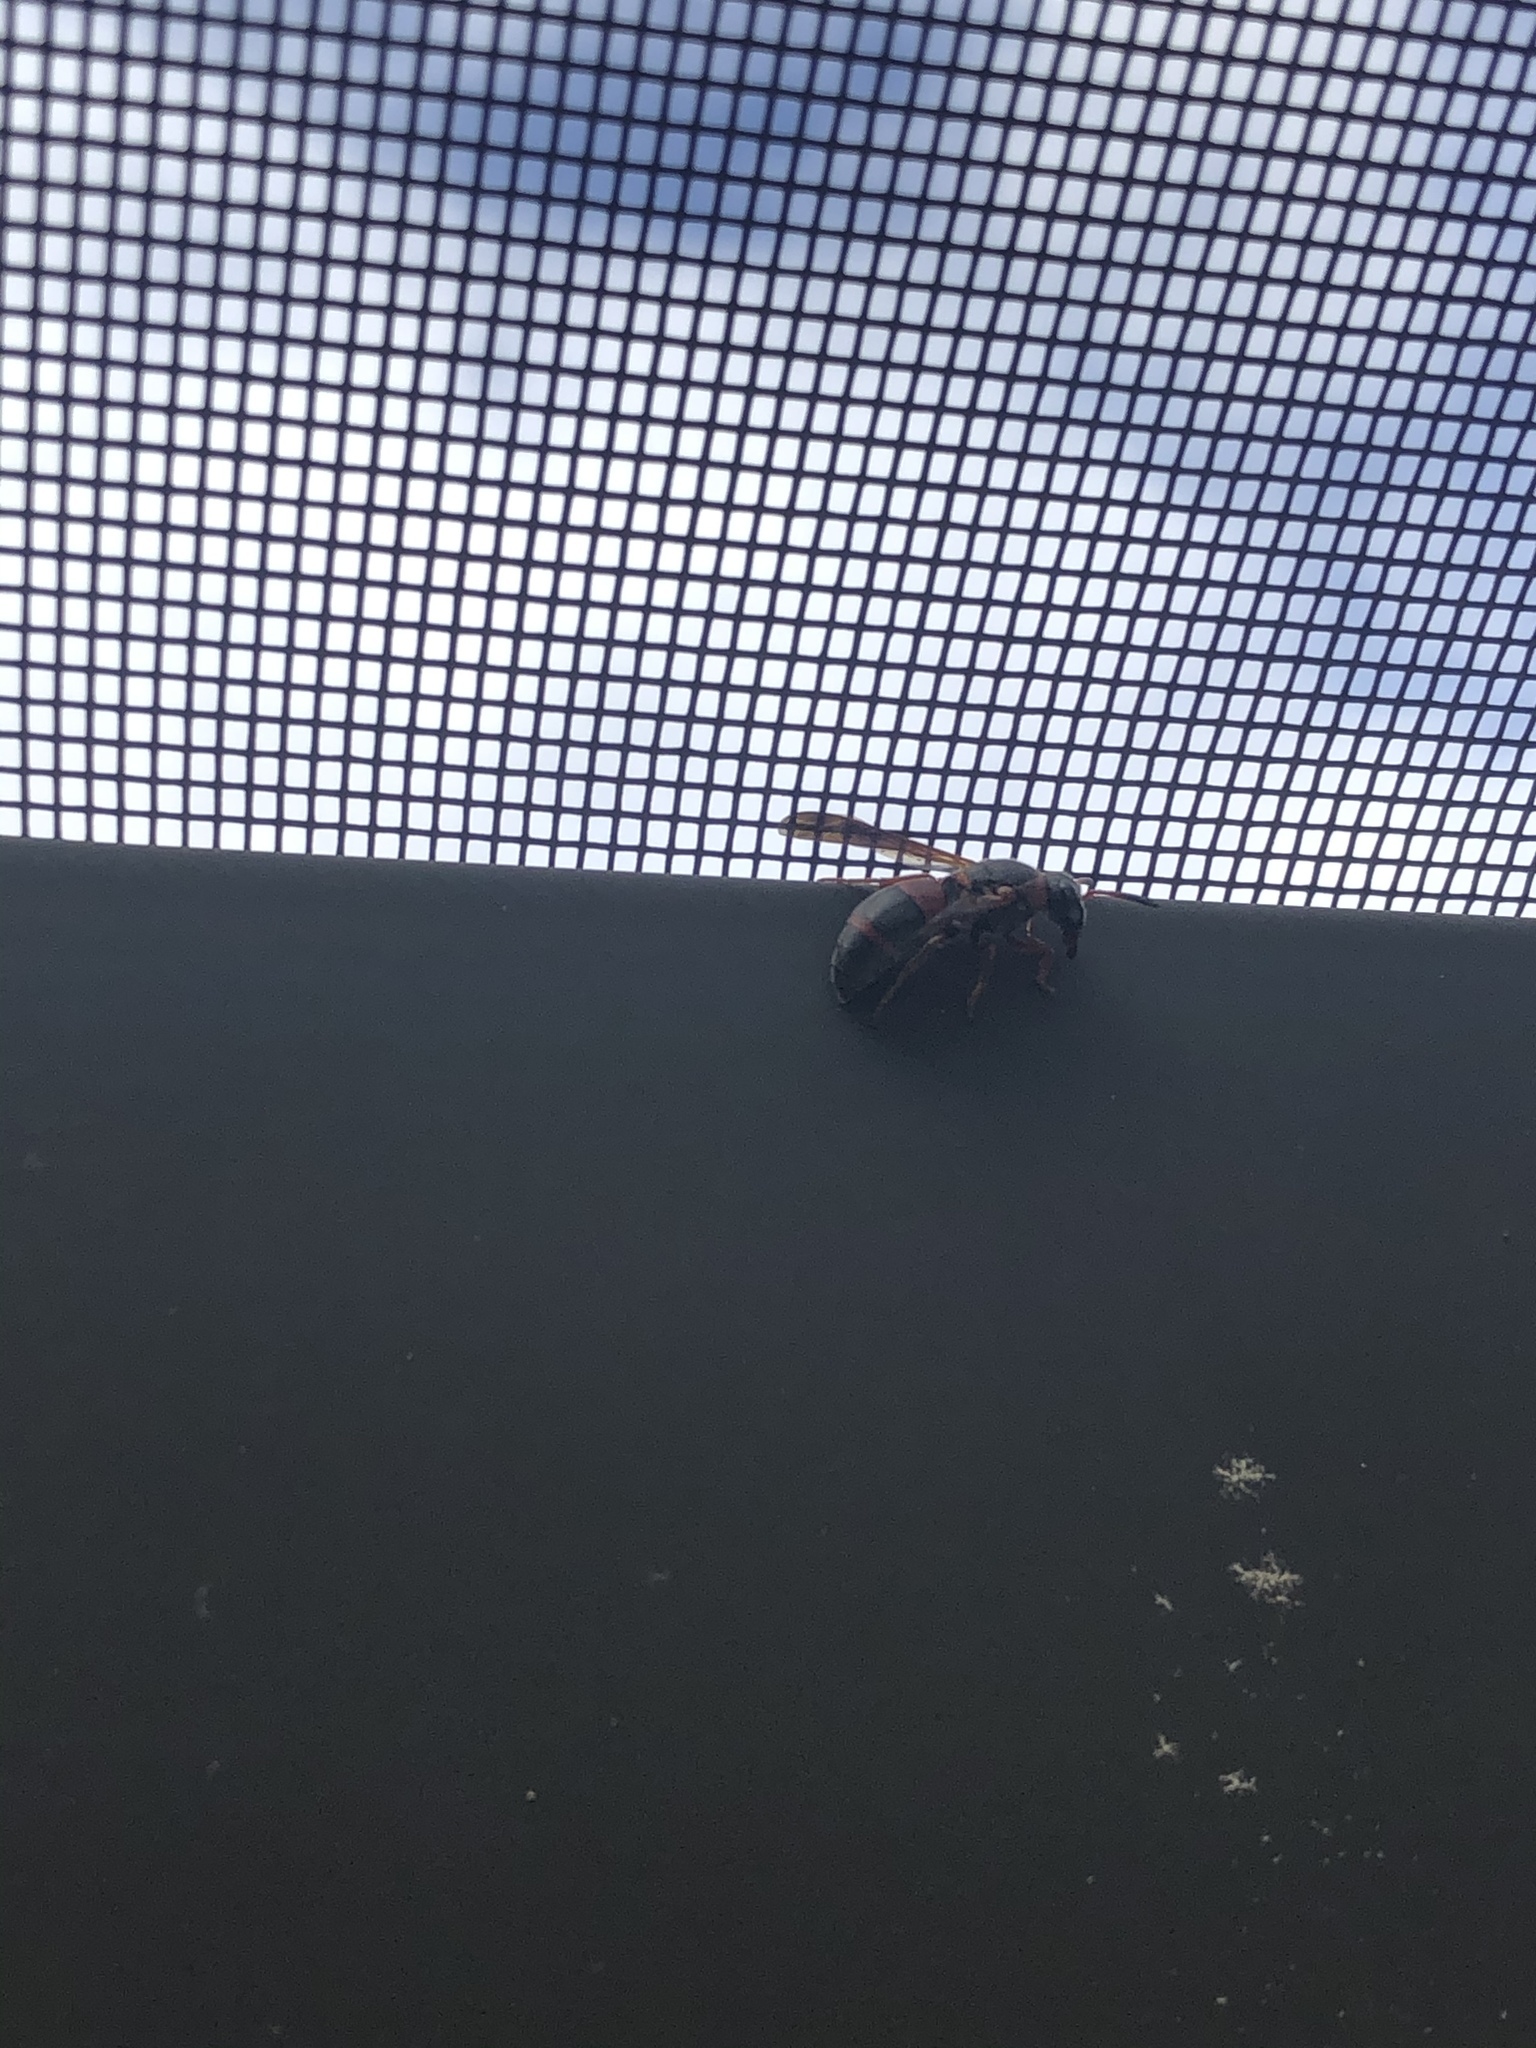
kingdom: Animalia
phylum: Arthropoda
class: Insecta
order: Hymenoptera
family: Eumenidae
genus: Pachodynerus
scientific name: Pachodynerus erynnis
